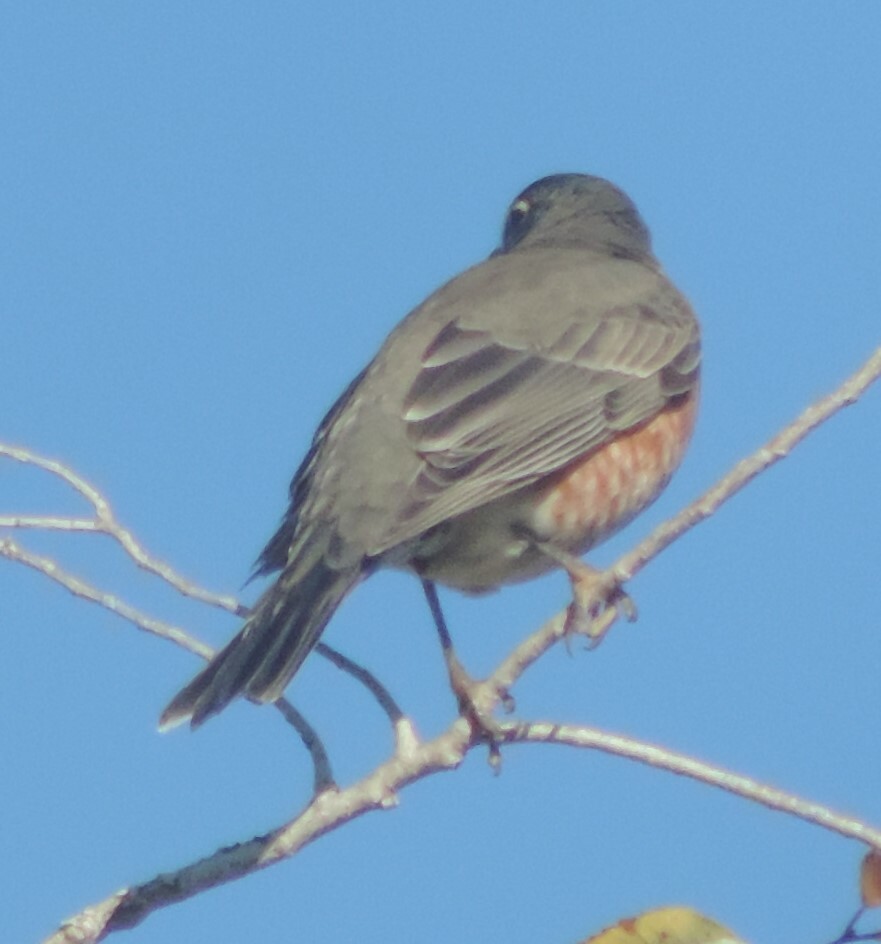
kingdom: Animalia
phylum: Chordata
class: Aves
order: Passeriformes
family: Turdidae
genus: Turdus
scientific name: Turdus migratorius
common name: American robin
